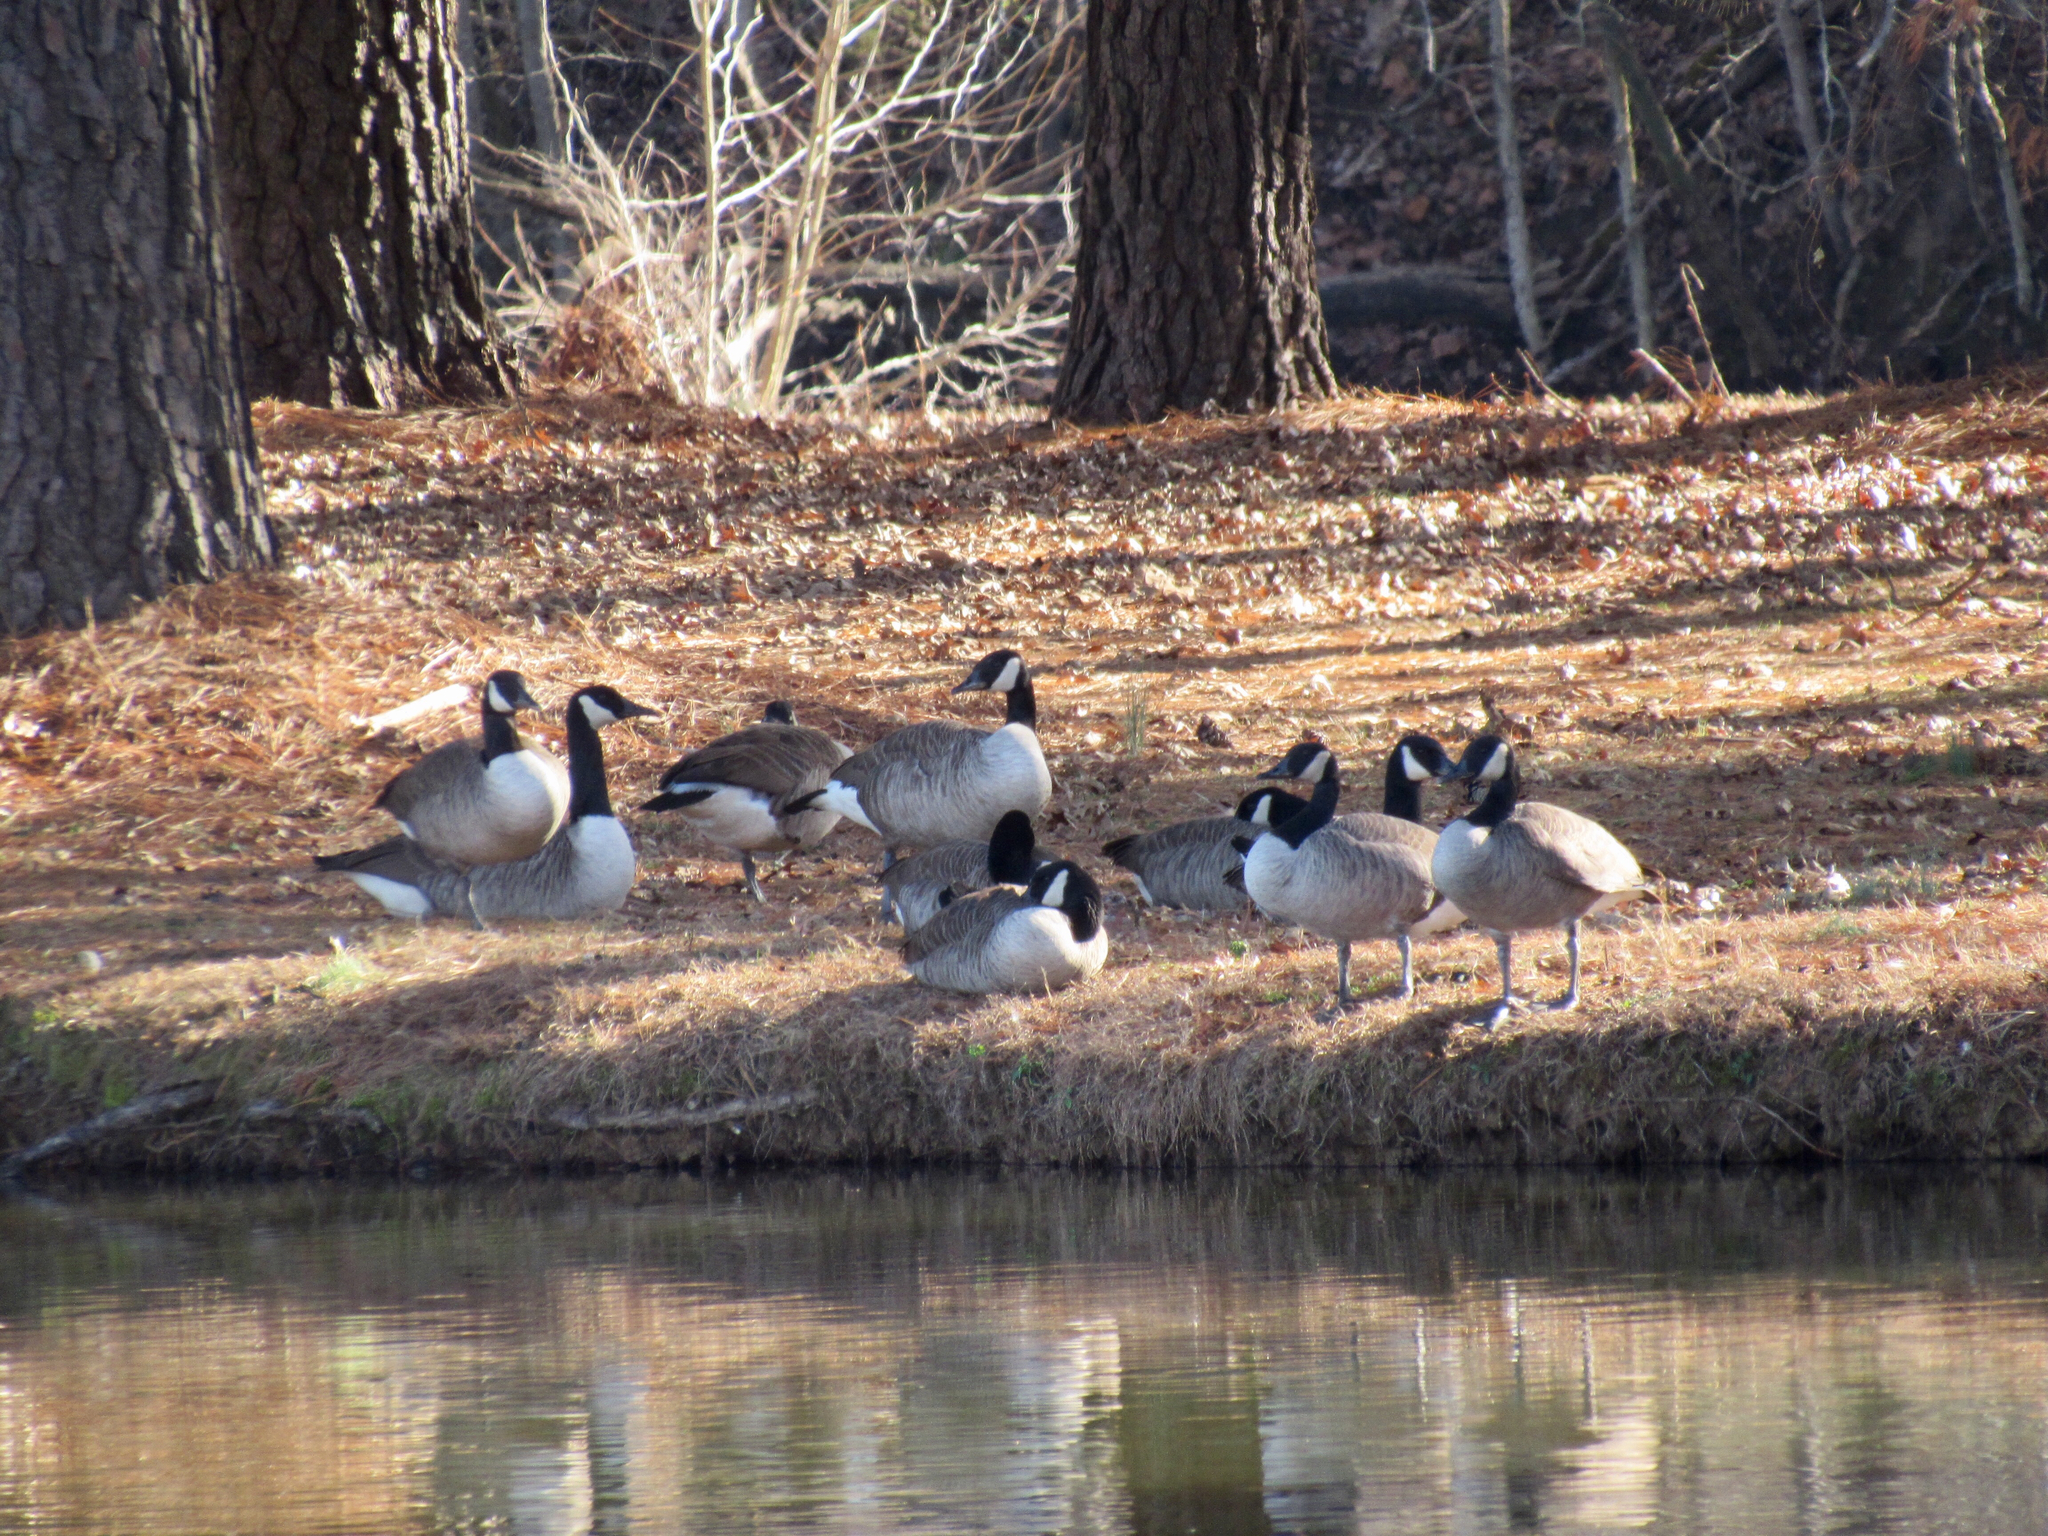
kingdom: Animalia
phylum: Chordata
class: Aves
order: Anseriformes
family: Anatidae
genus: Branta
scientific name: Branta canadensis
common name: Canada goose
